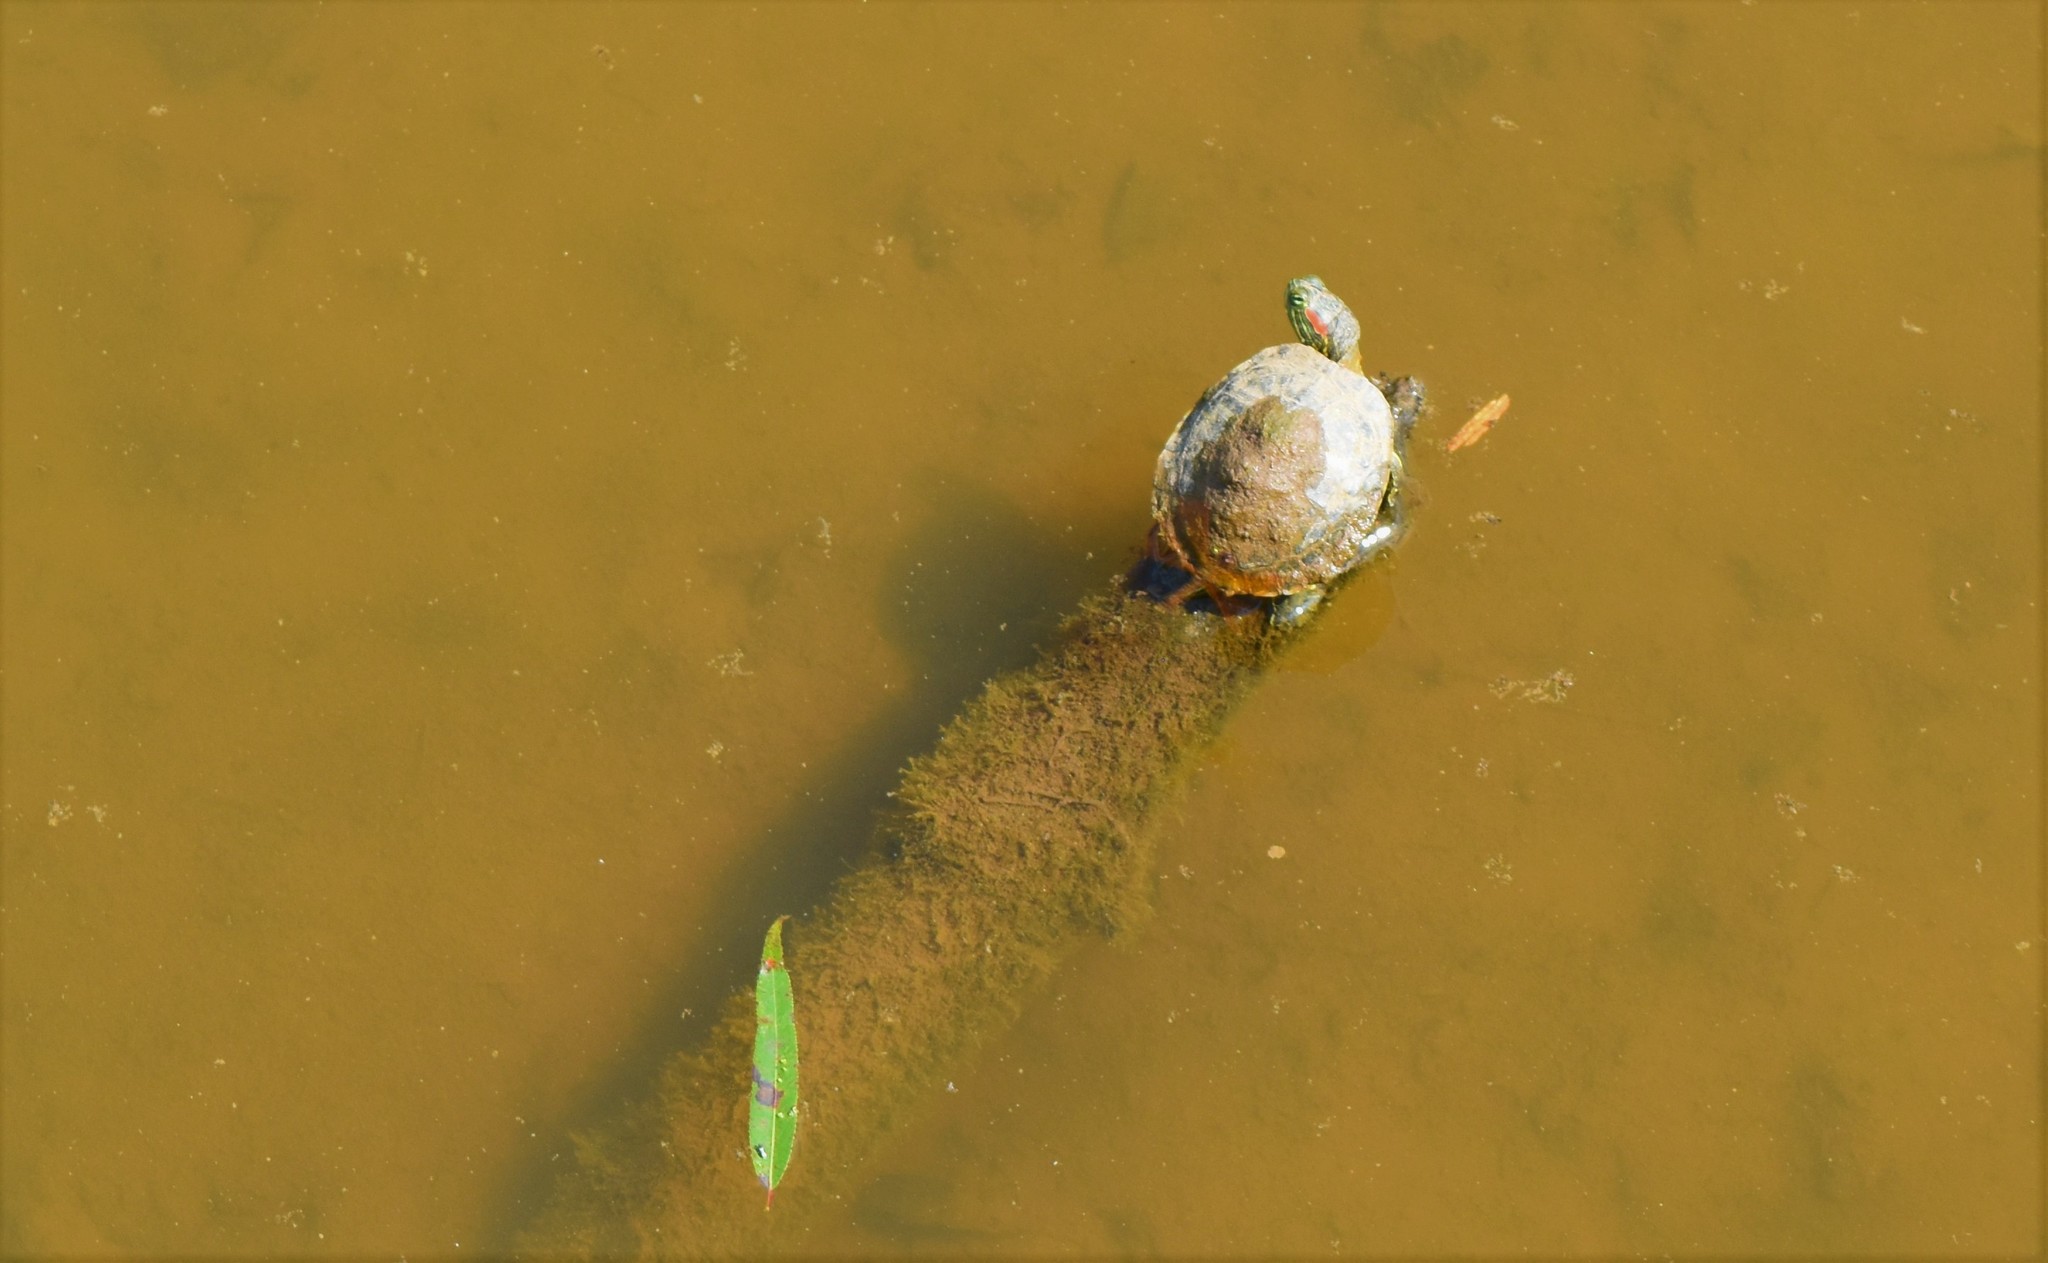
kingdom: Animalia
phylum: Chordata
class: Testudines
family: Emydidae
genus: Trachemys
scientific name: Trachemys scripta
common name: Slider
